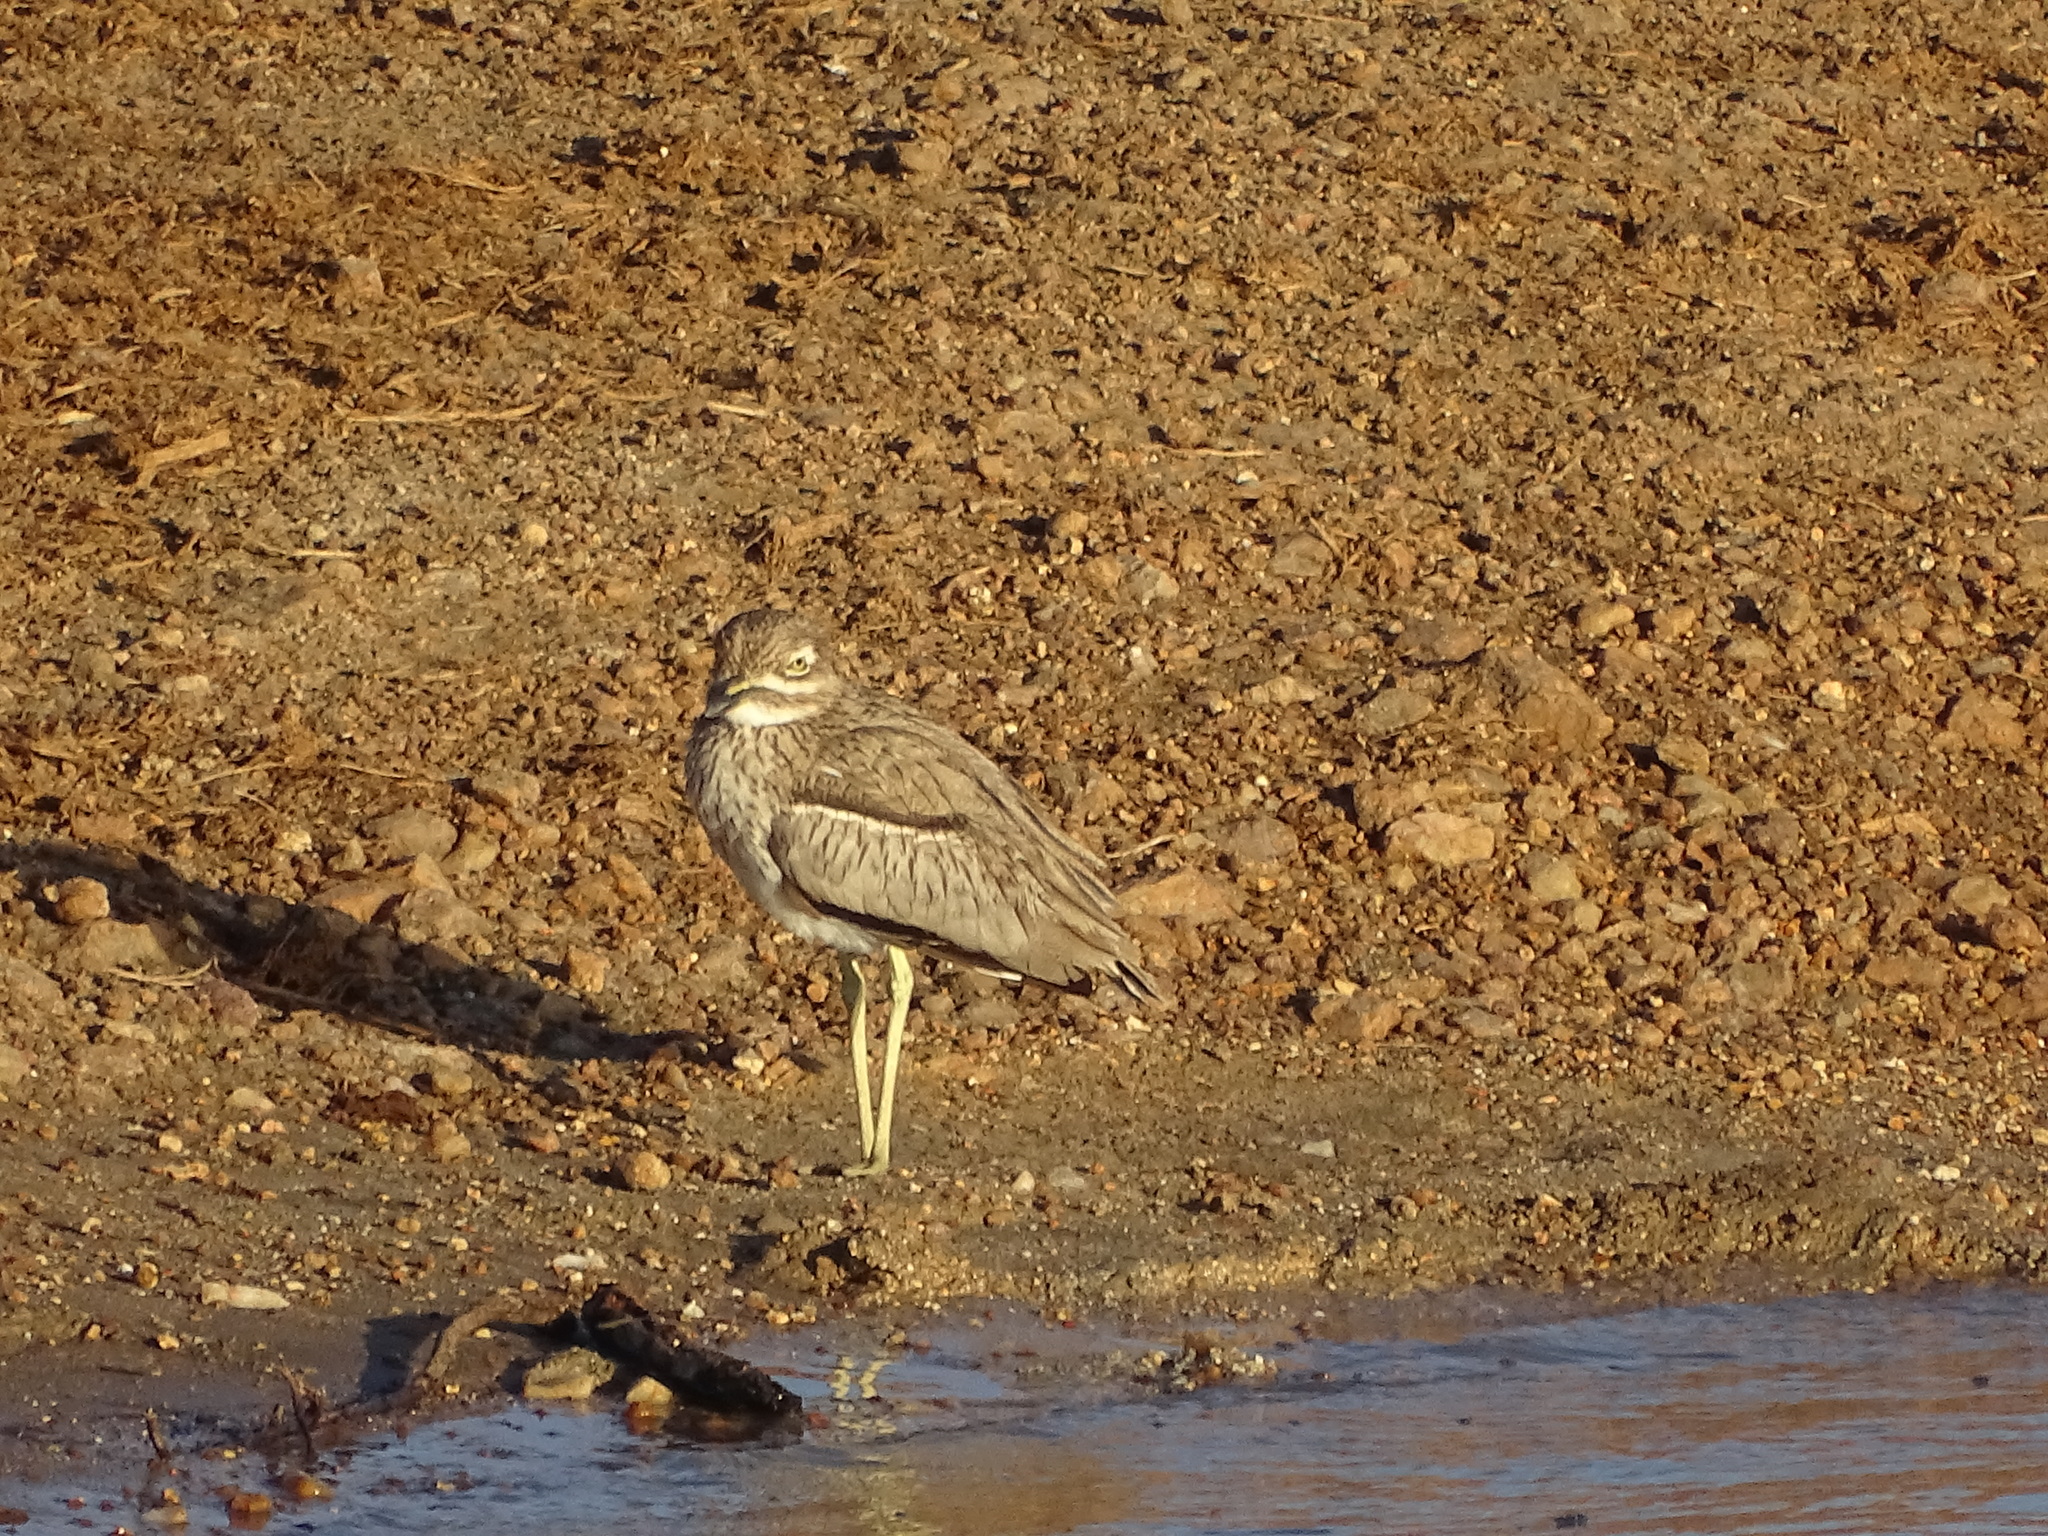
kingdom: Animalia
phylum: Chordata
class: Aves
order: Charadriiformes
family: Burhinidae
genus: Burhinus
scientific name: Burhinus vermiculatus
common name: Water thick-knee
